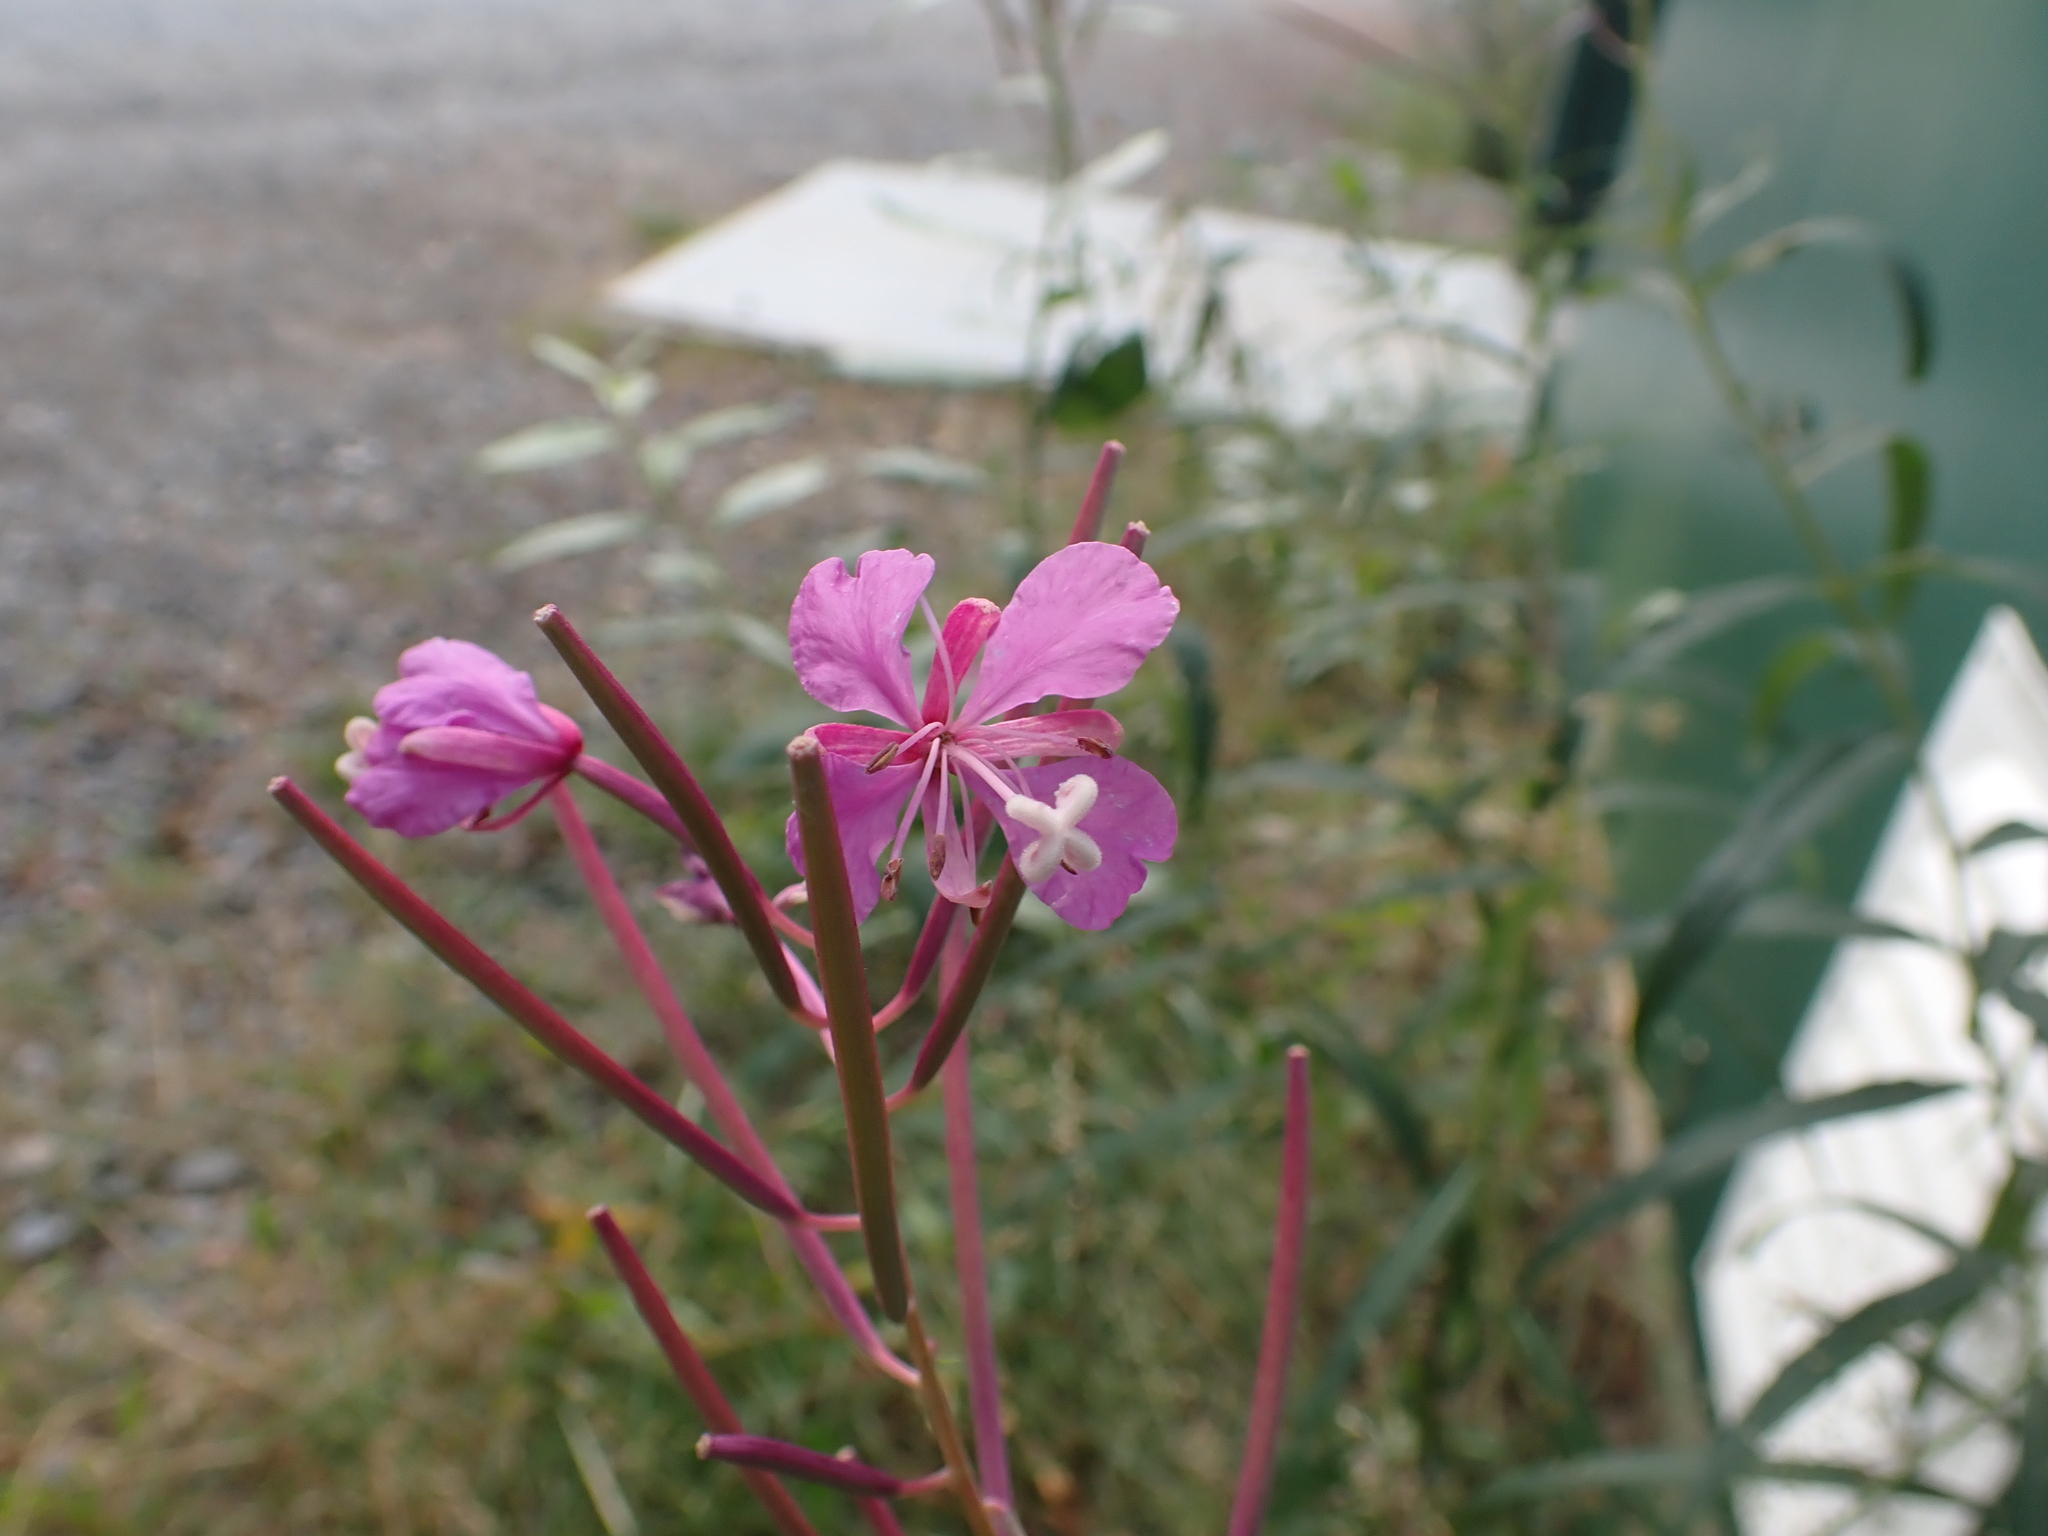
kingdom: Plantae
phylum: Tracheophyta
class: Magnoliopsida
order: Myrtales
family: Onagraceae
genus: Chamaenerion
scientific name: Chamaenerion angustifolium
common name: Fireweed
